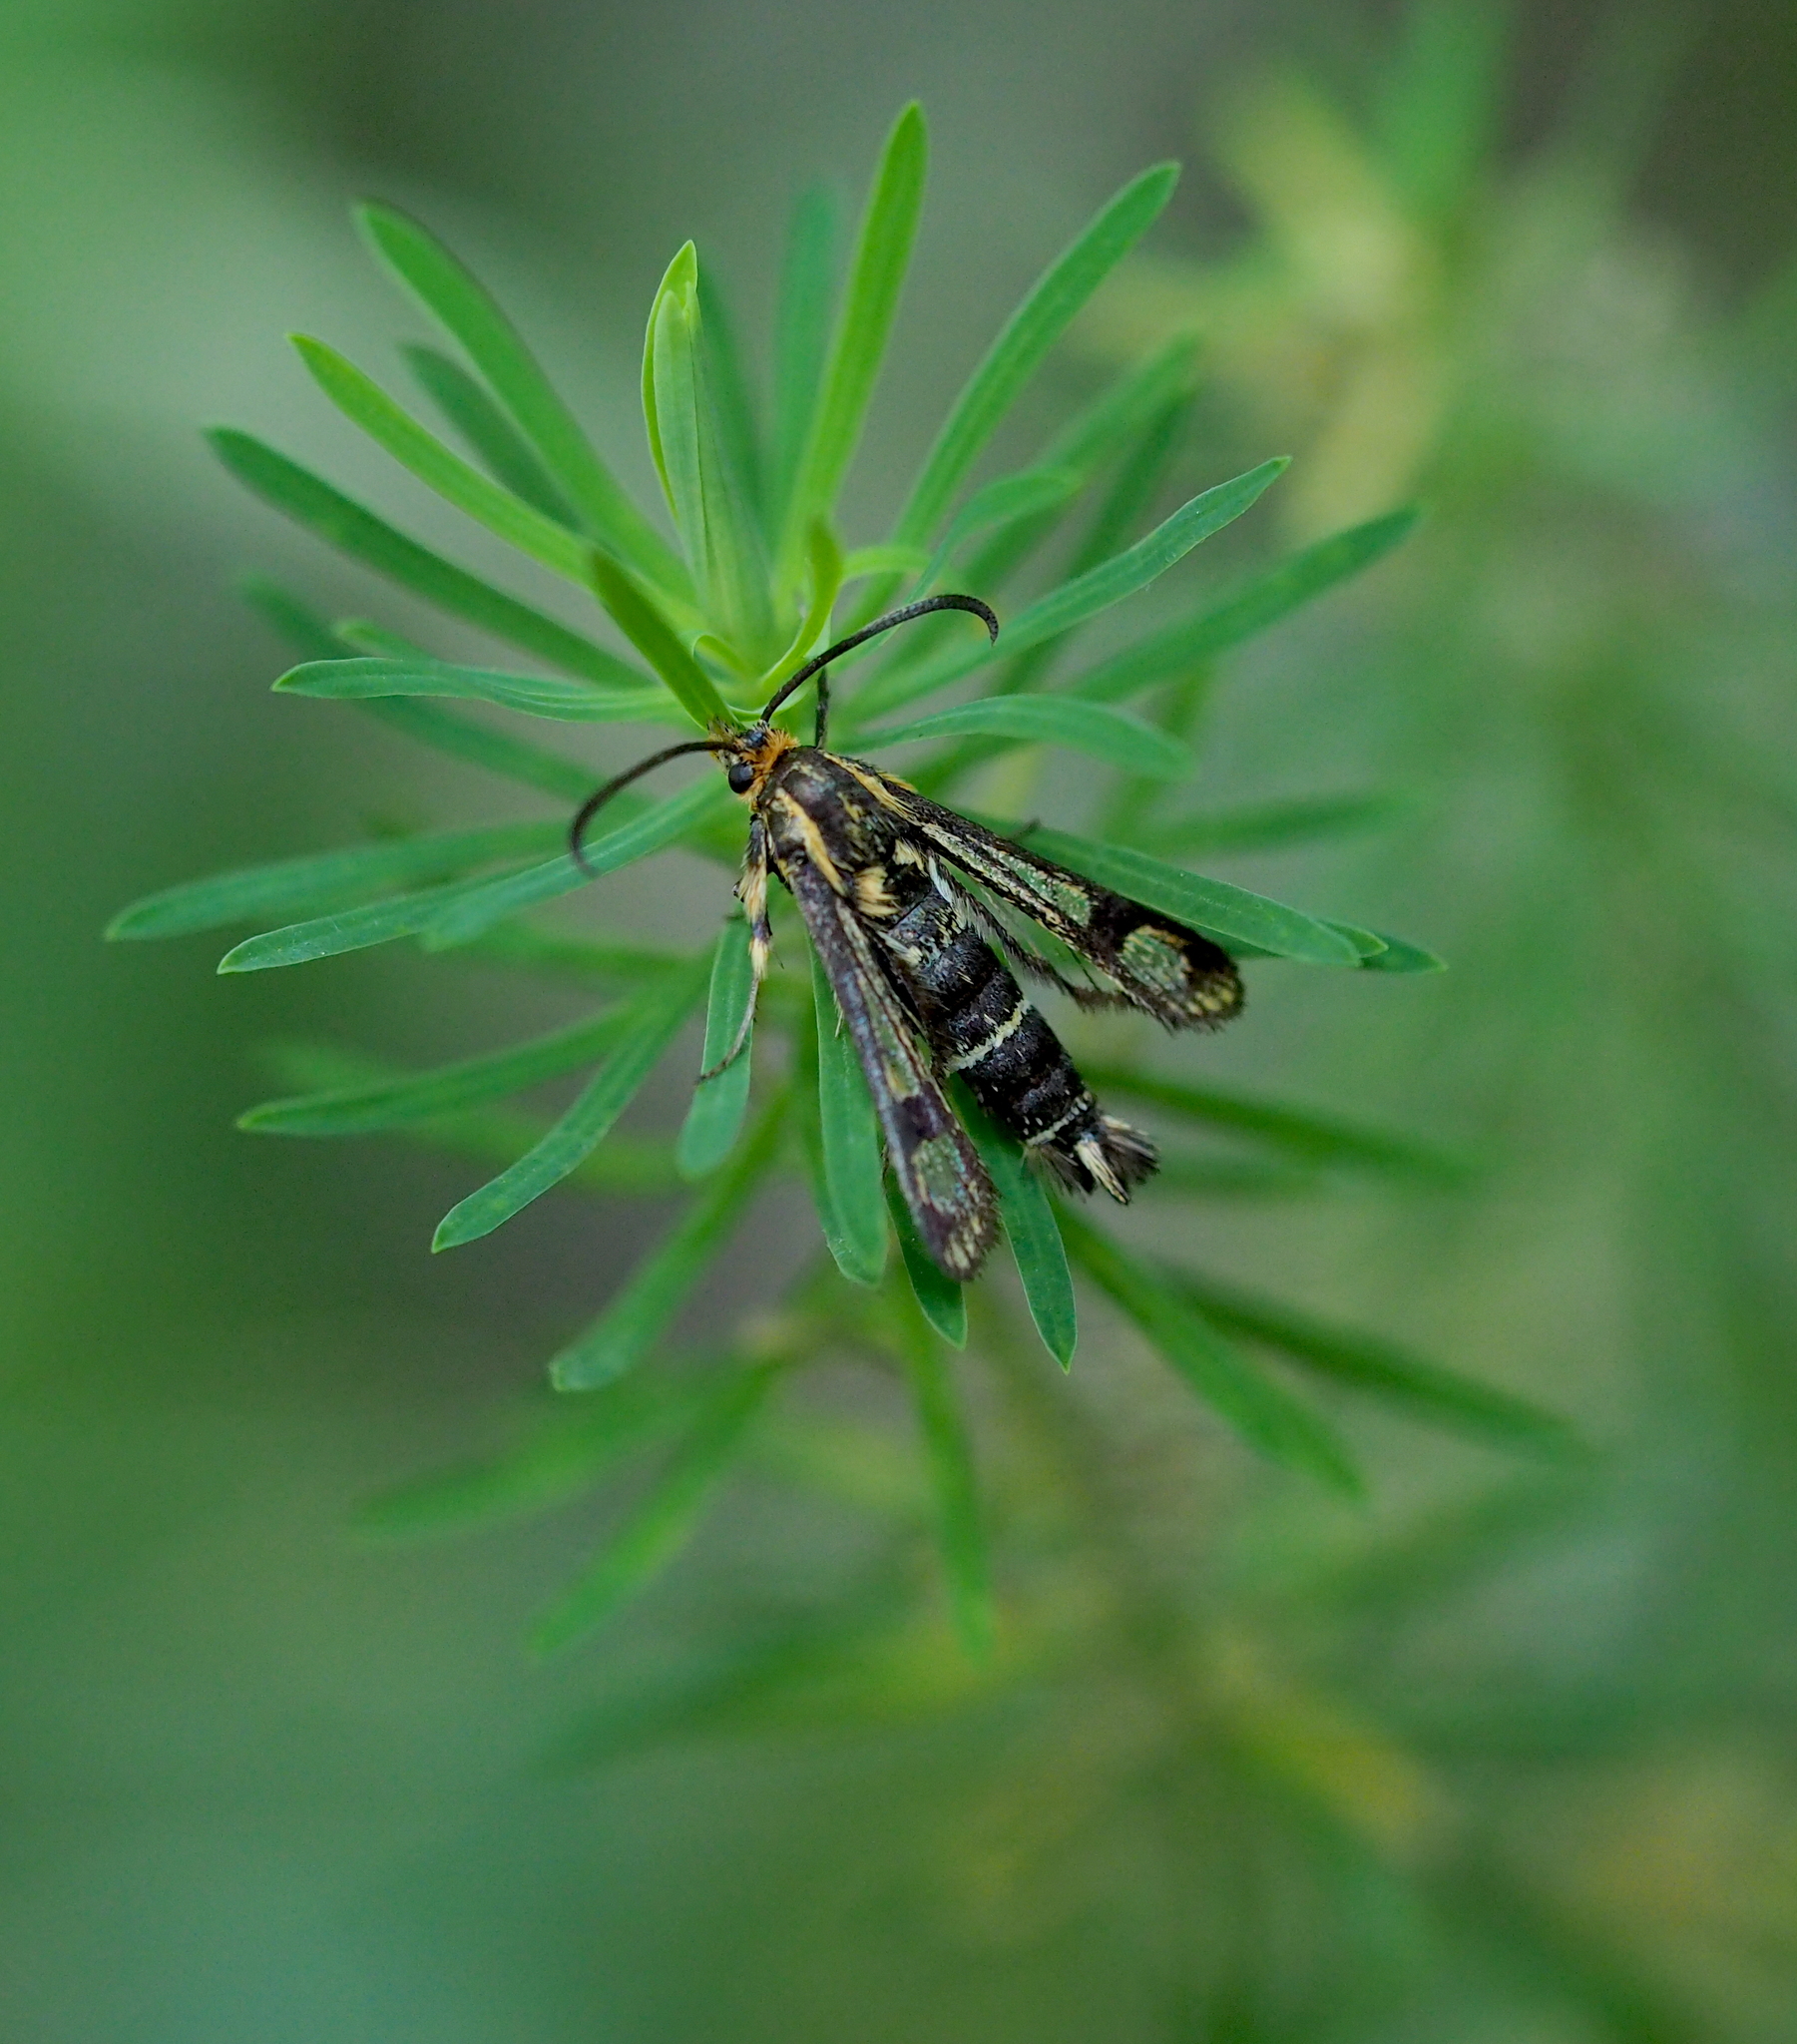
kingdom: Animalia
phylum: Arthropoda
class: Insecta
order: Lepidoptera
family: Sesiidae
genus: Chamaesphecia
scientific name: Chamaesphecia empiformis
